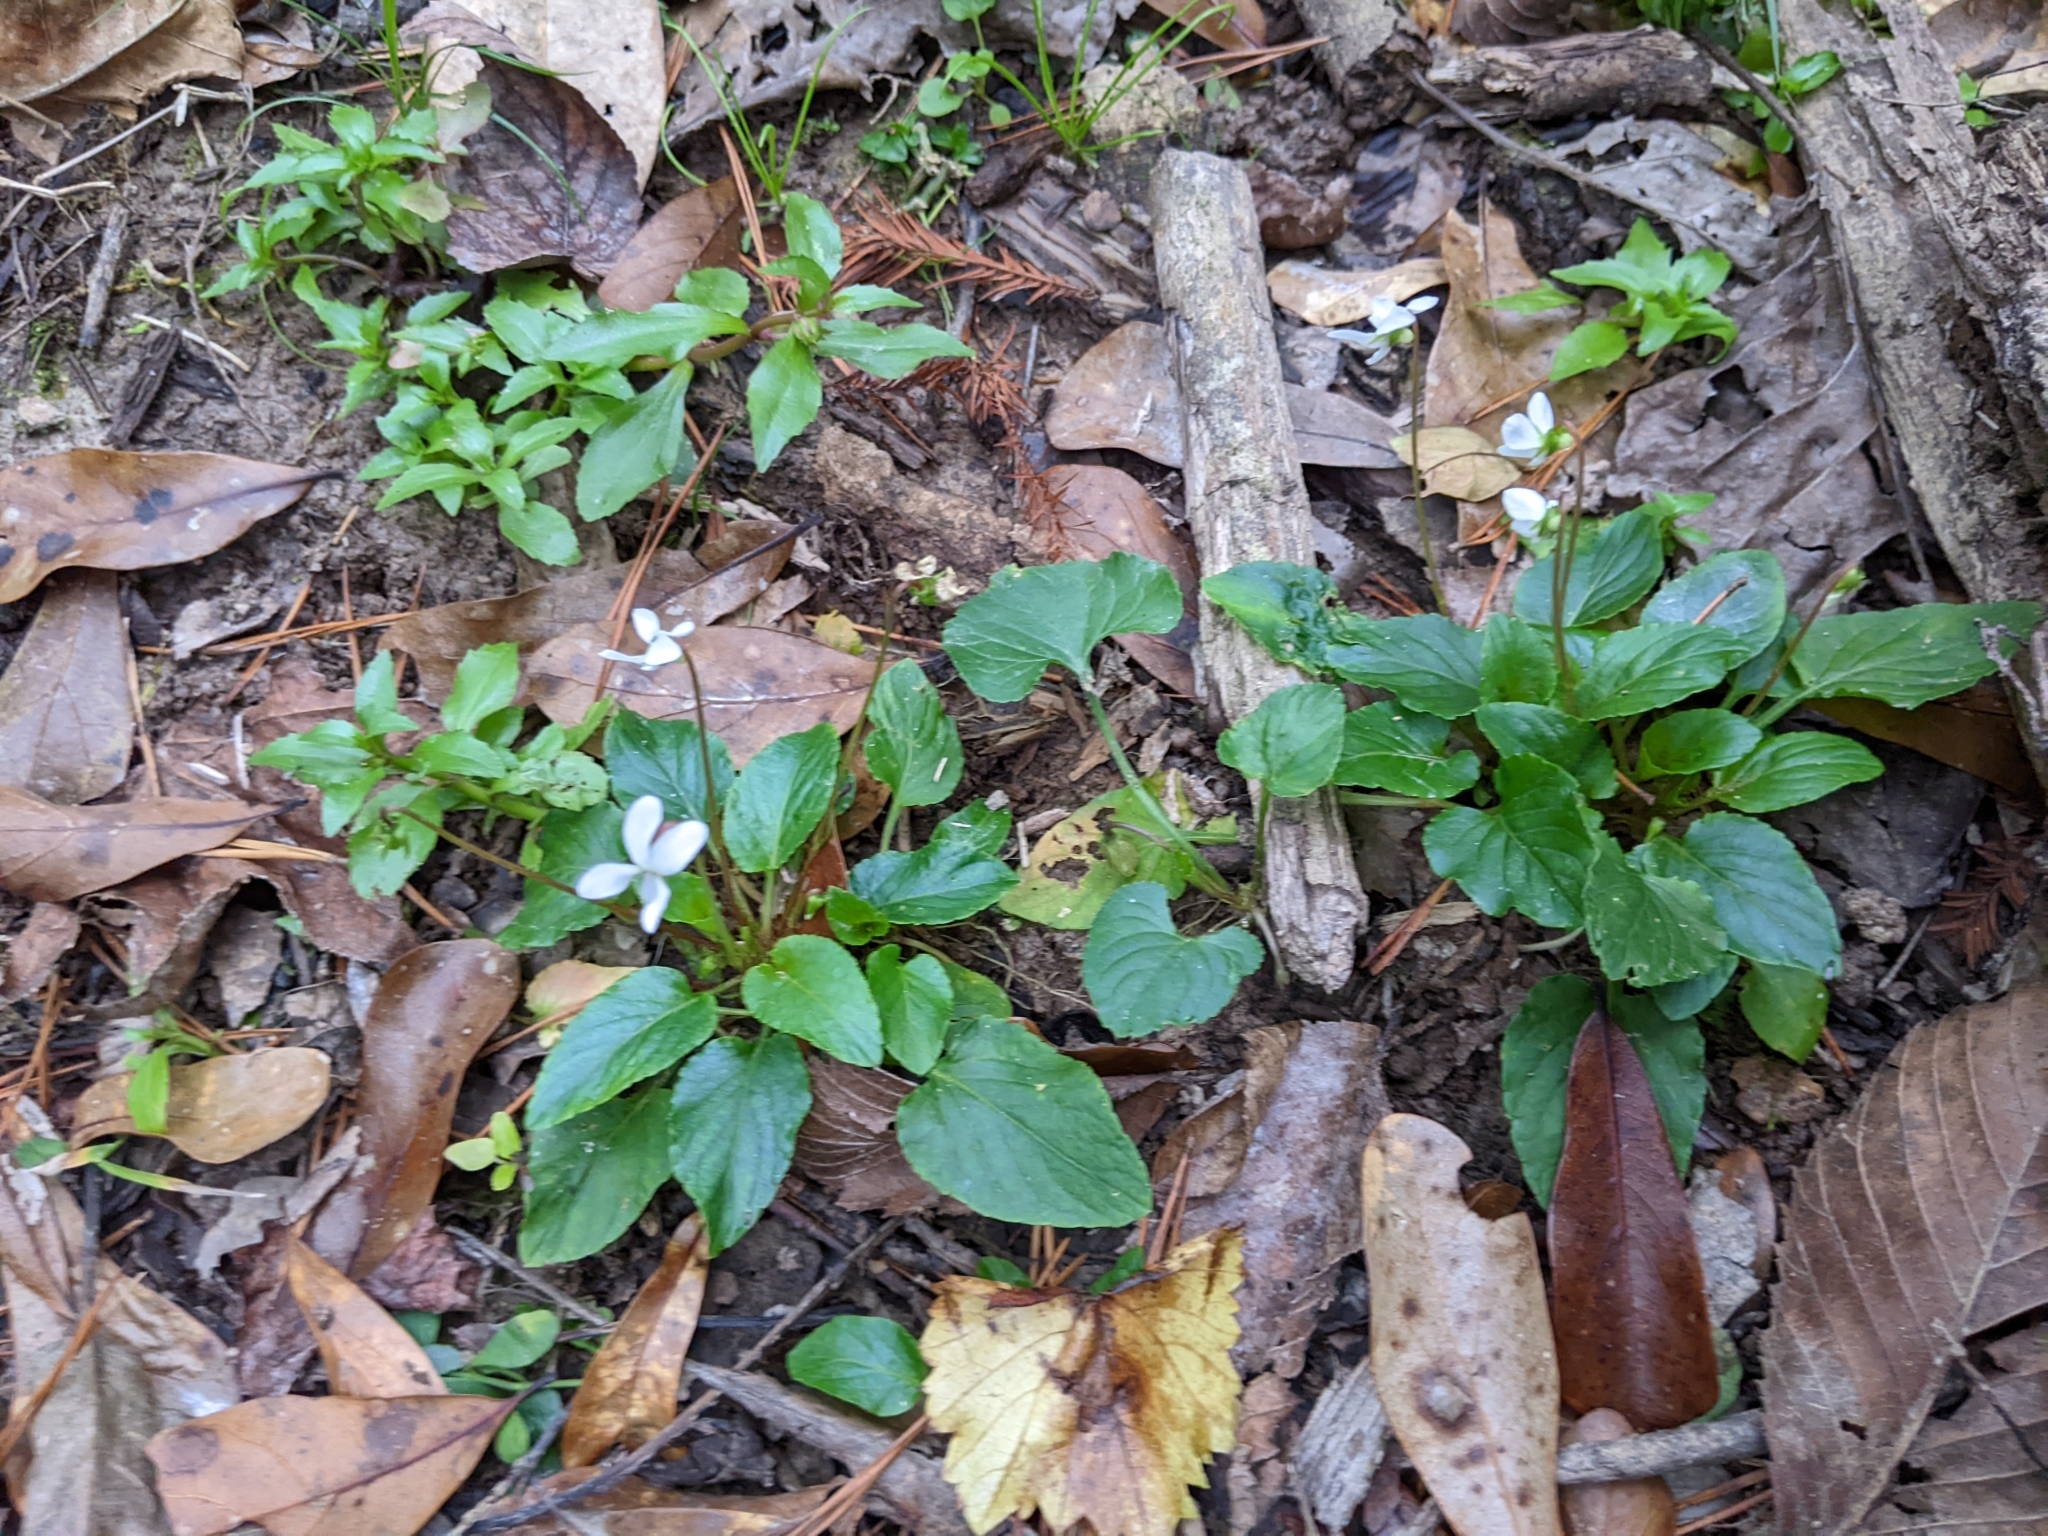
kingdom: Plantae
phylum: Tracheophyta
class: Magnoliopsida
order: Malpighiales
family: Violaceae
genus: Viola
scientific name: Viola primulifolia
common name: Primrose-leaf violet
